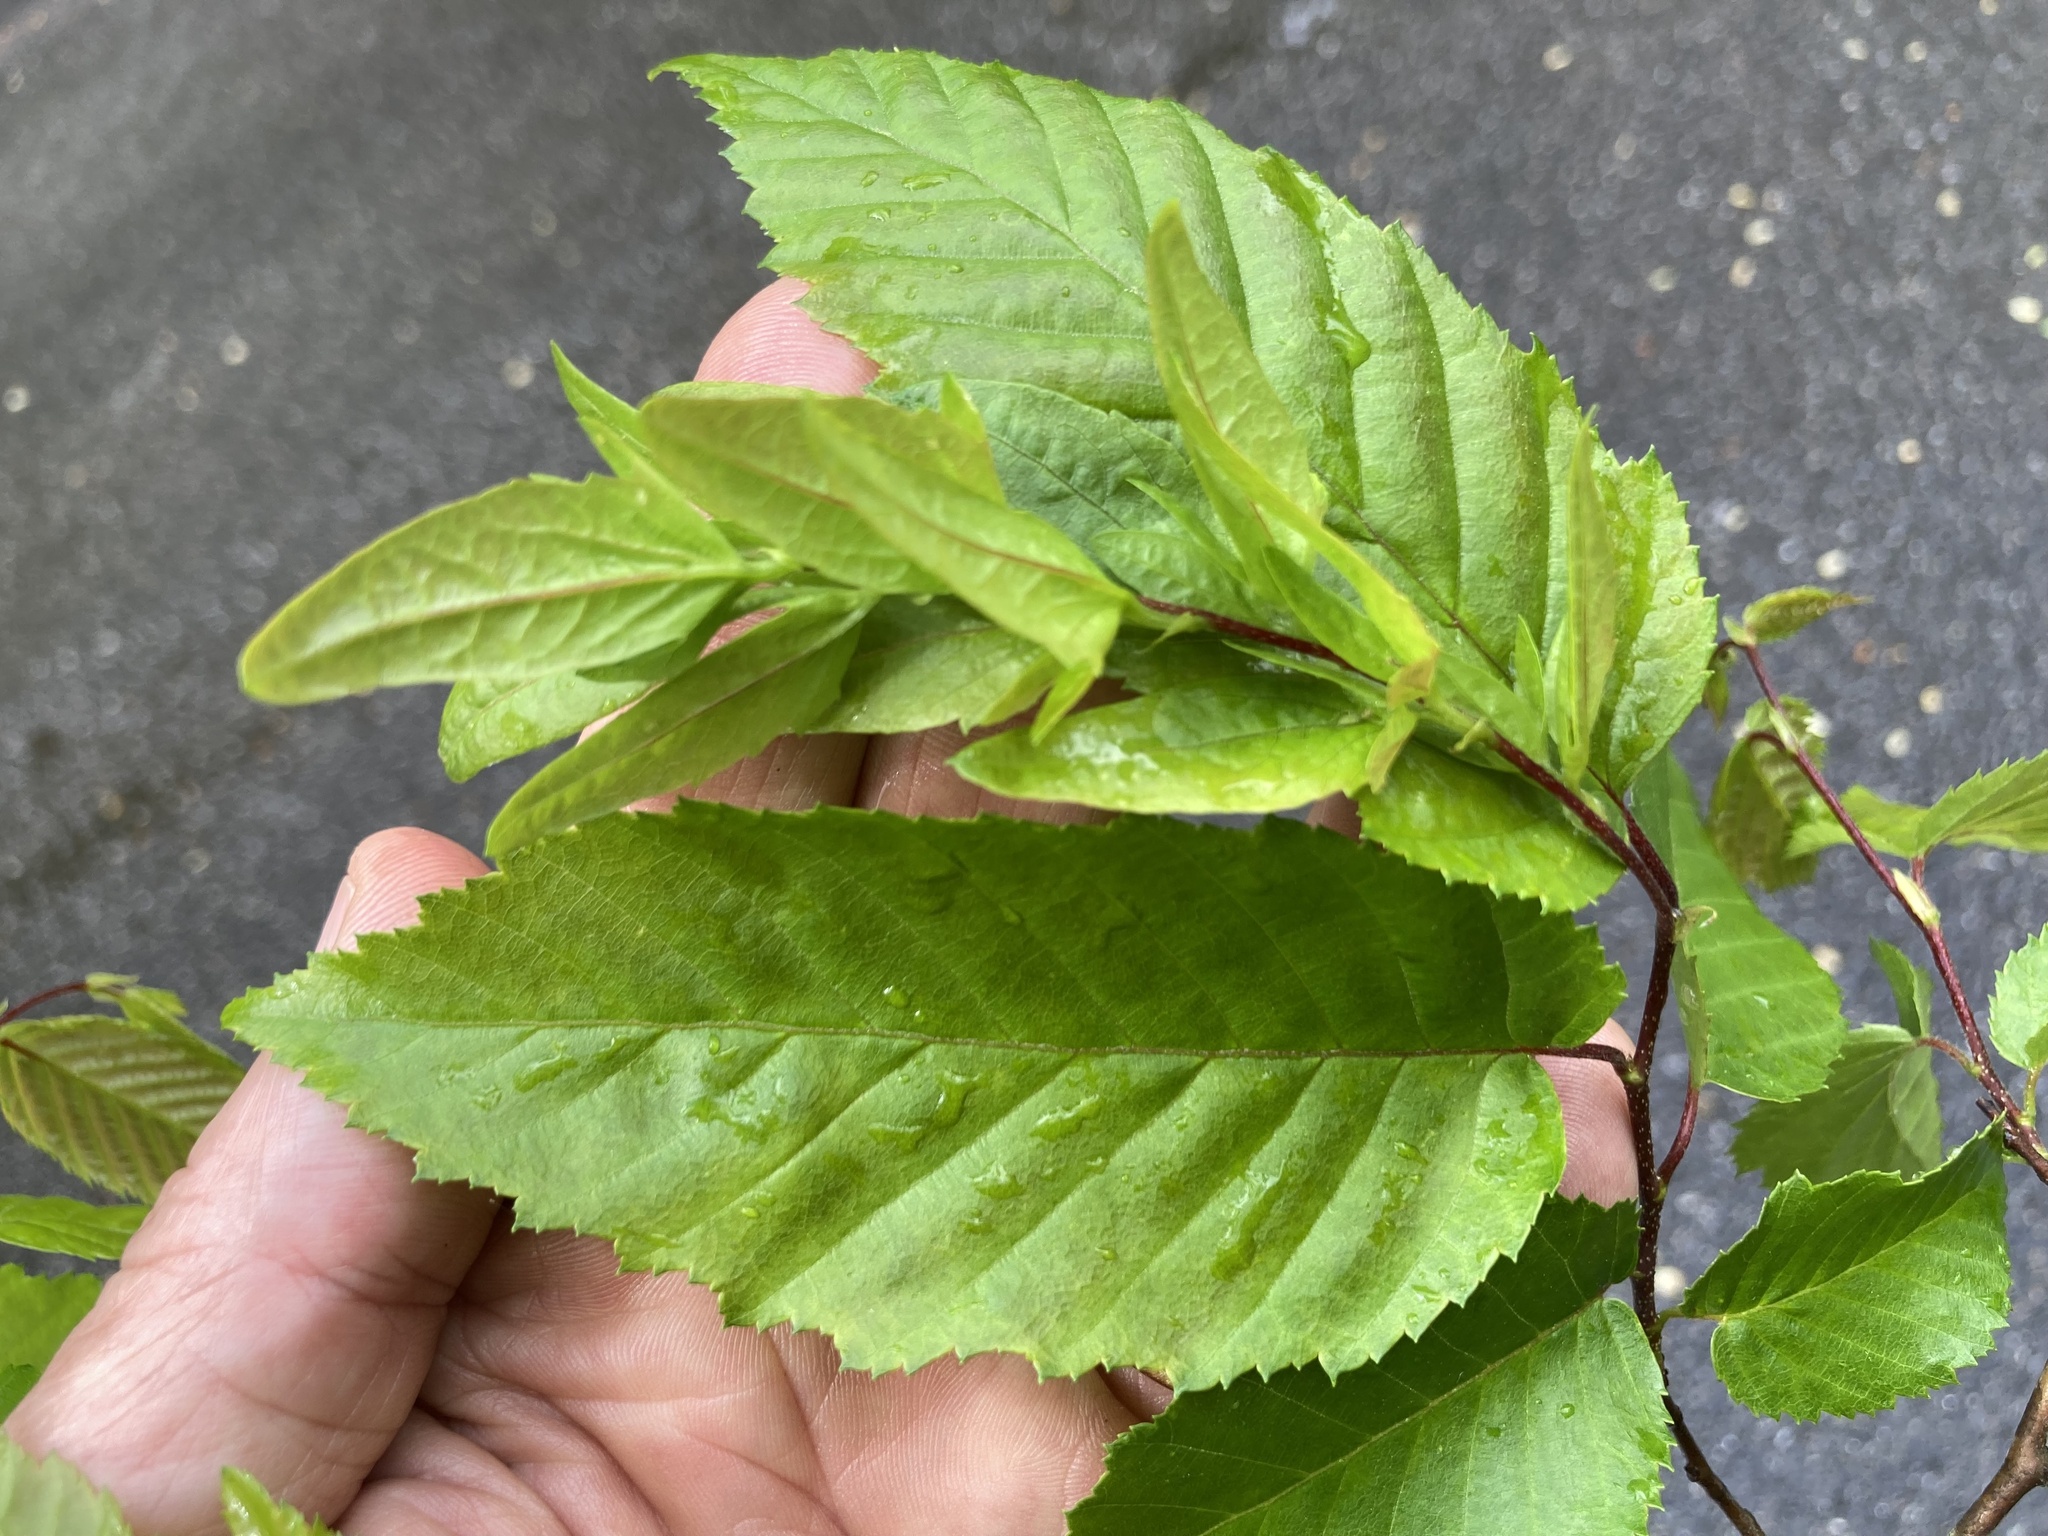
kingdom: Plantae
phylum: Tracheophyta
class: Magnoliopsida
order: Fagales
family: Betulaceae
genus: Carpinus
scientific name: Carpinus caroliniana
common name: American hornbeam
